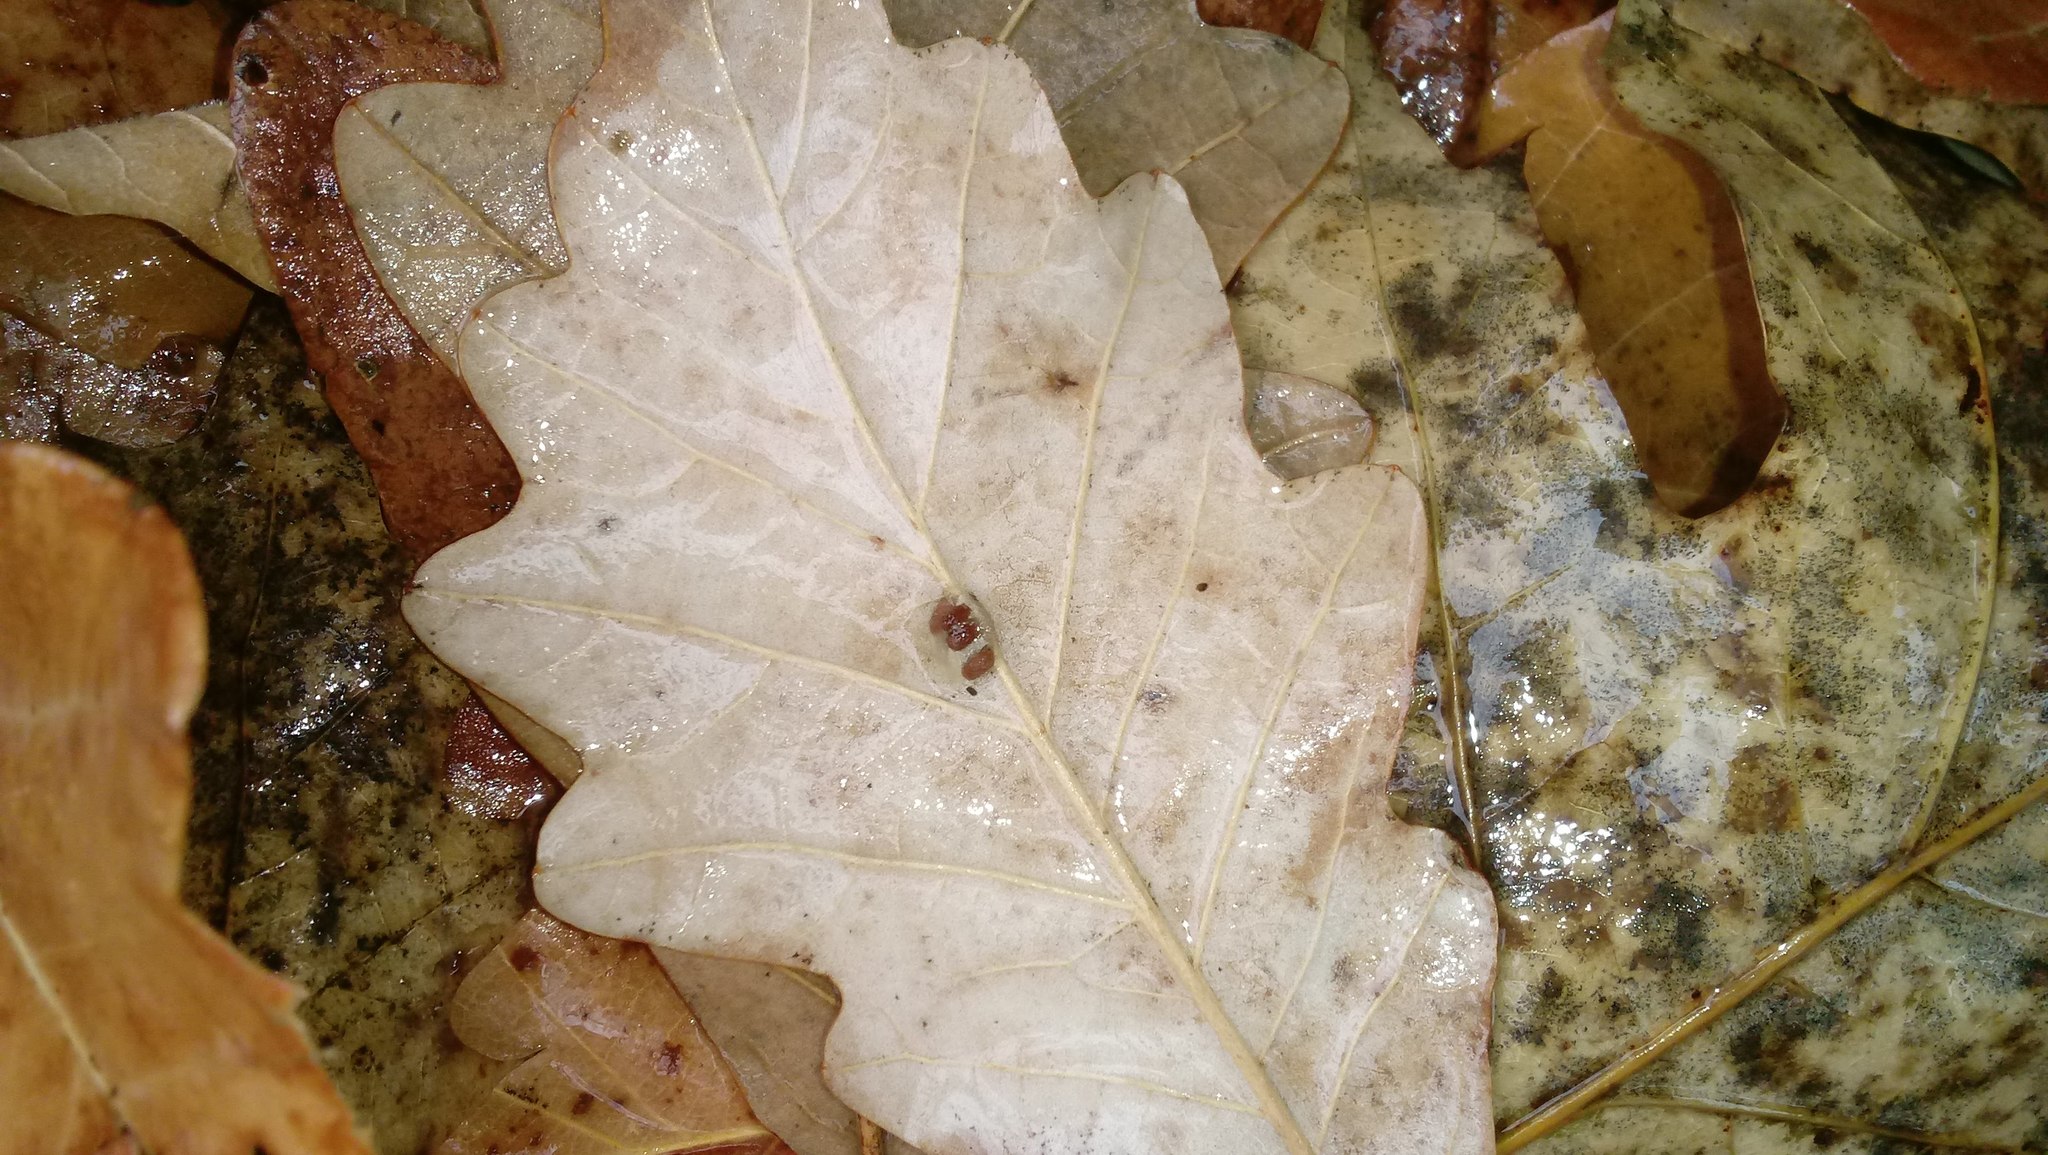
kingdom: Animalia
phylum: Arthropoda
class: Insecta
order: Hymenoptera
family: Cynipidae
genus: Andricus
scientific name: Andricus Druon ignotum
